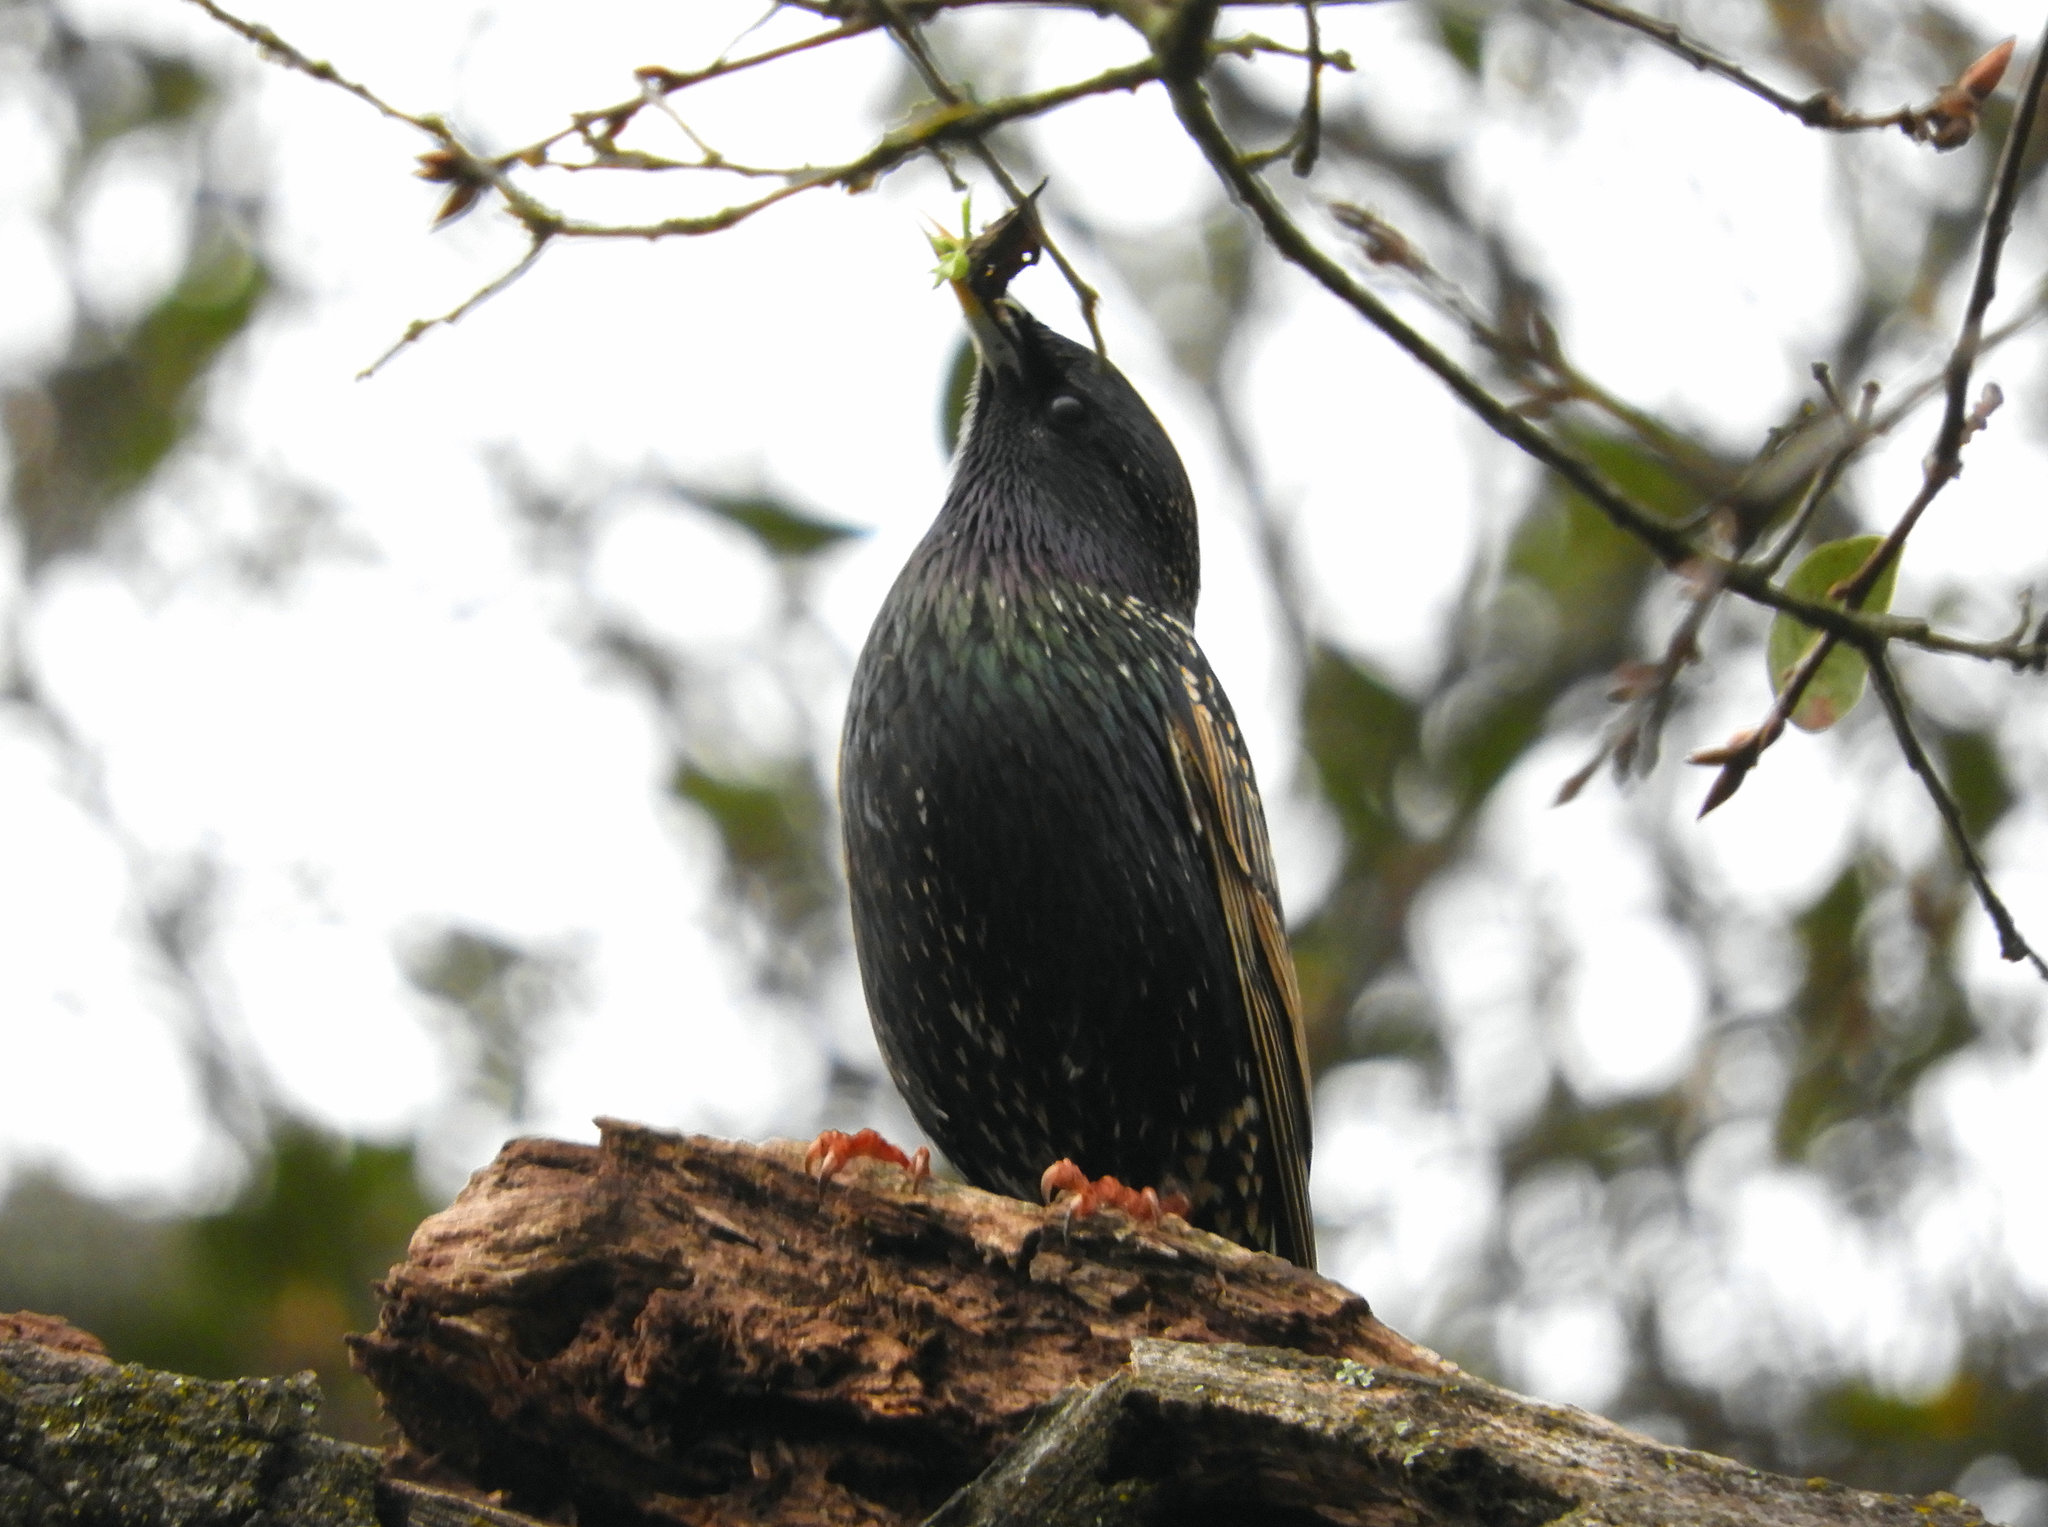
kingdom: Animalia
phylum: Chordata
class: Aves
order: Passeriformes
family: Sturnidae
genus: Sturnus
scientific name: Sturnus vulgaris
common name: Common starling
